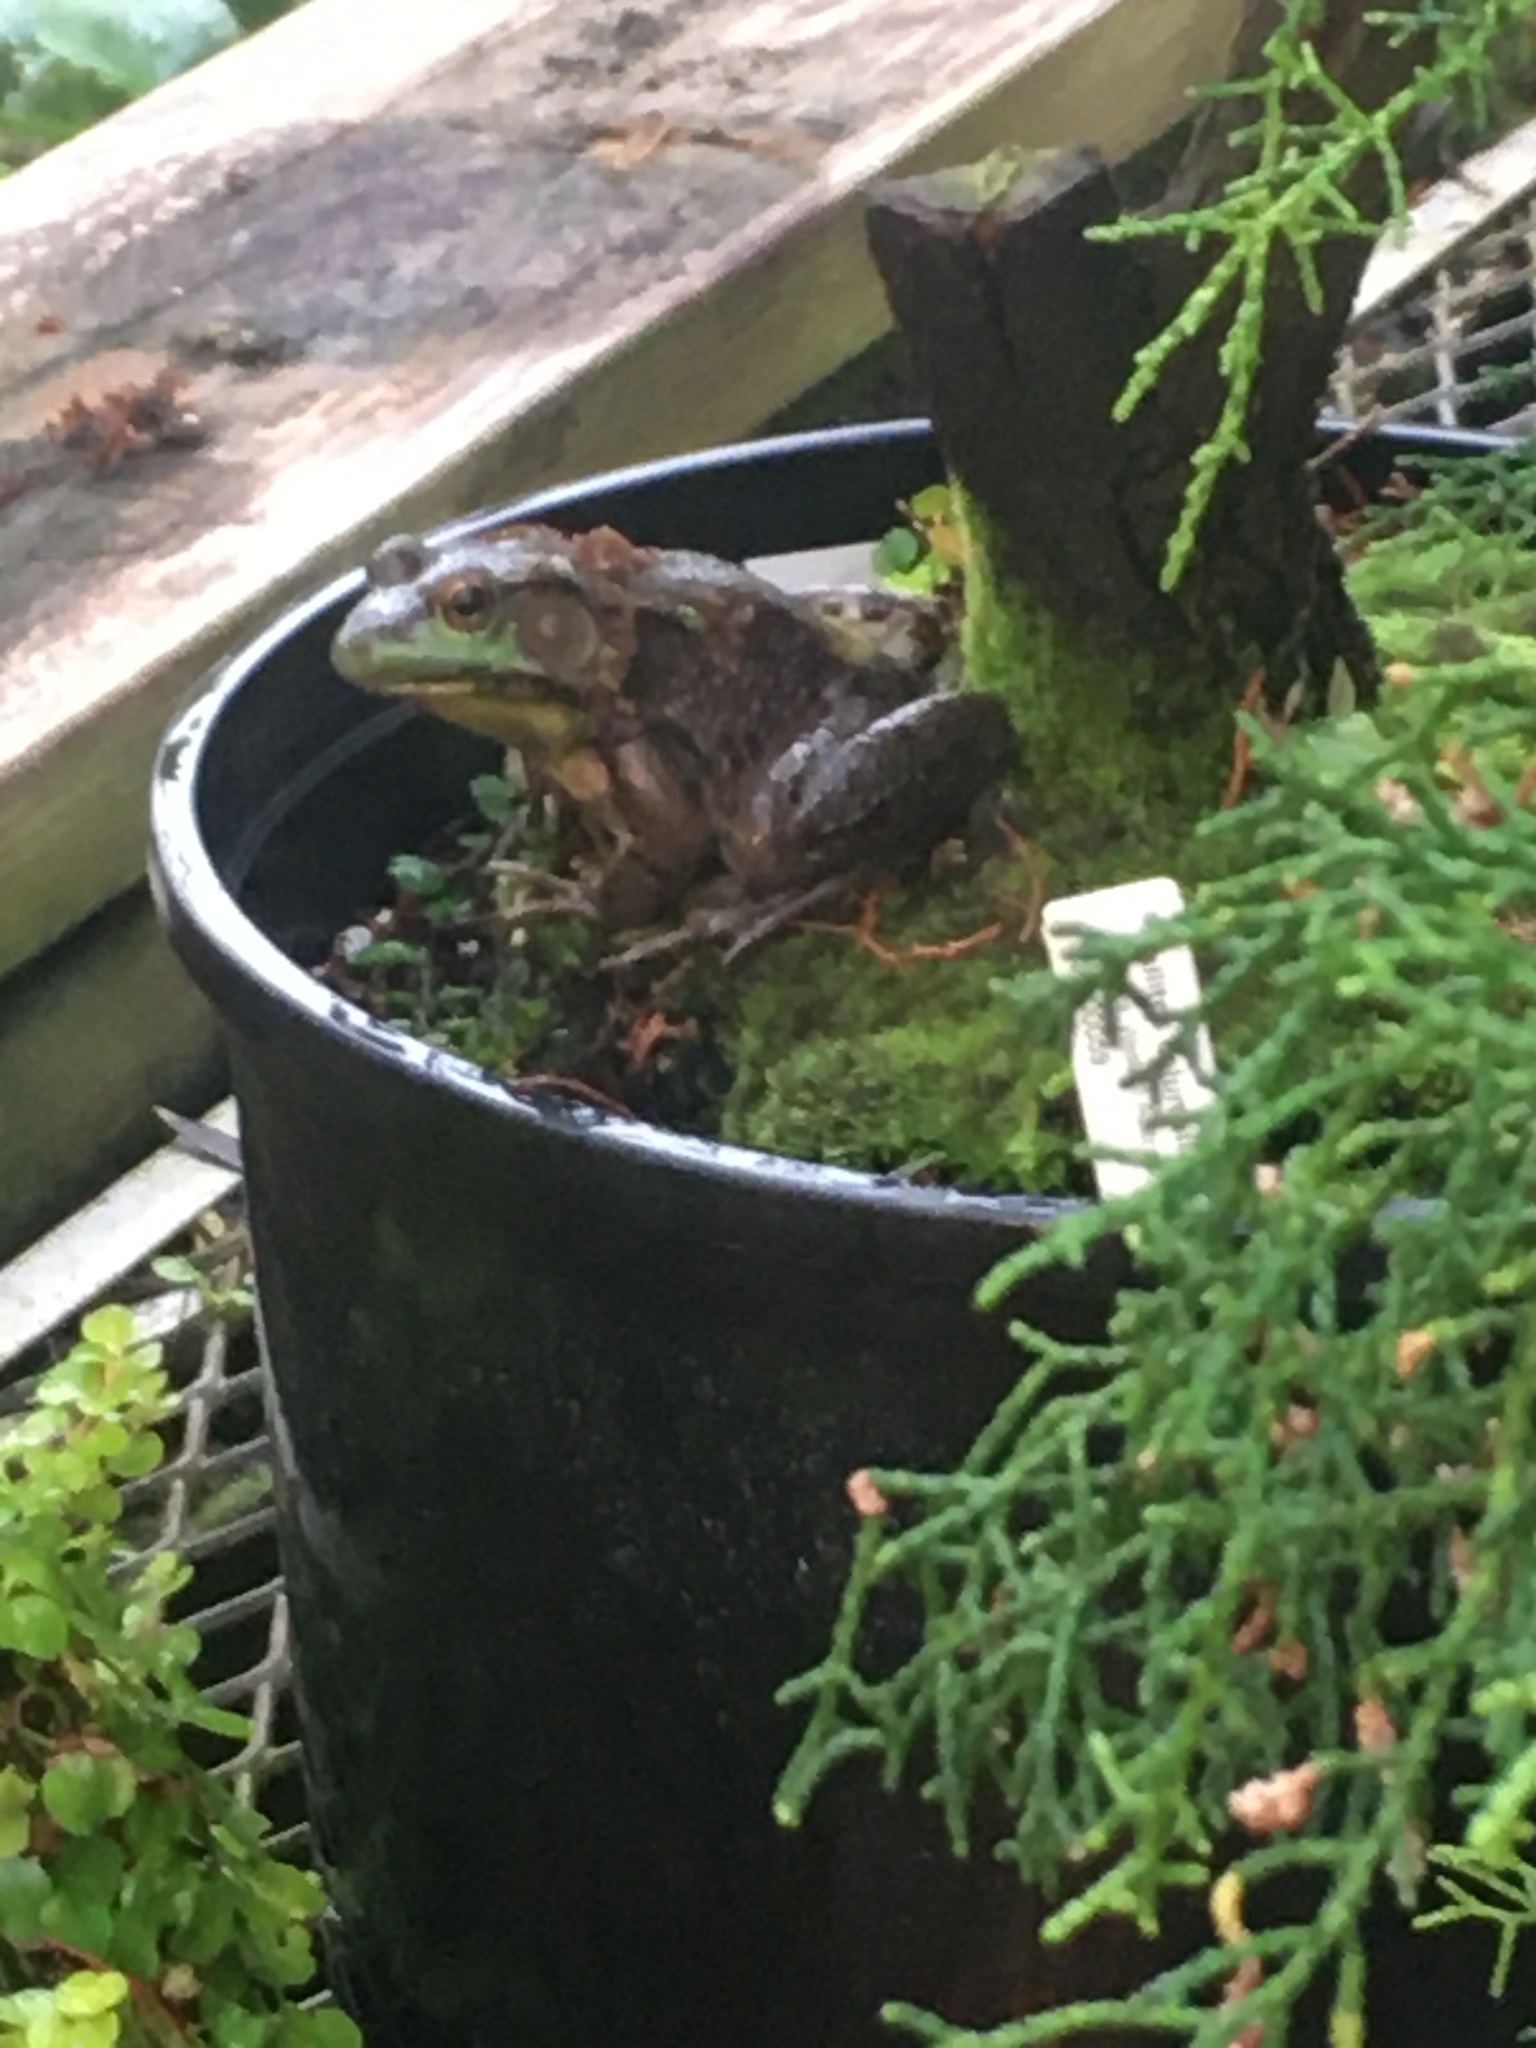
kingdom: Animalia
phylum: Chordata
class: Amphibia
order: Anura
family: Ranidae
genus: Lithobates
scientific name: Lithobates catesbeianus
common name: American bullfrog
